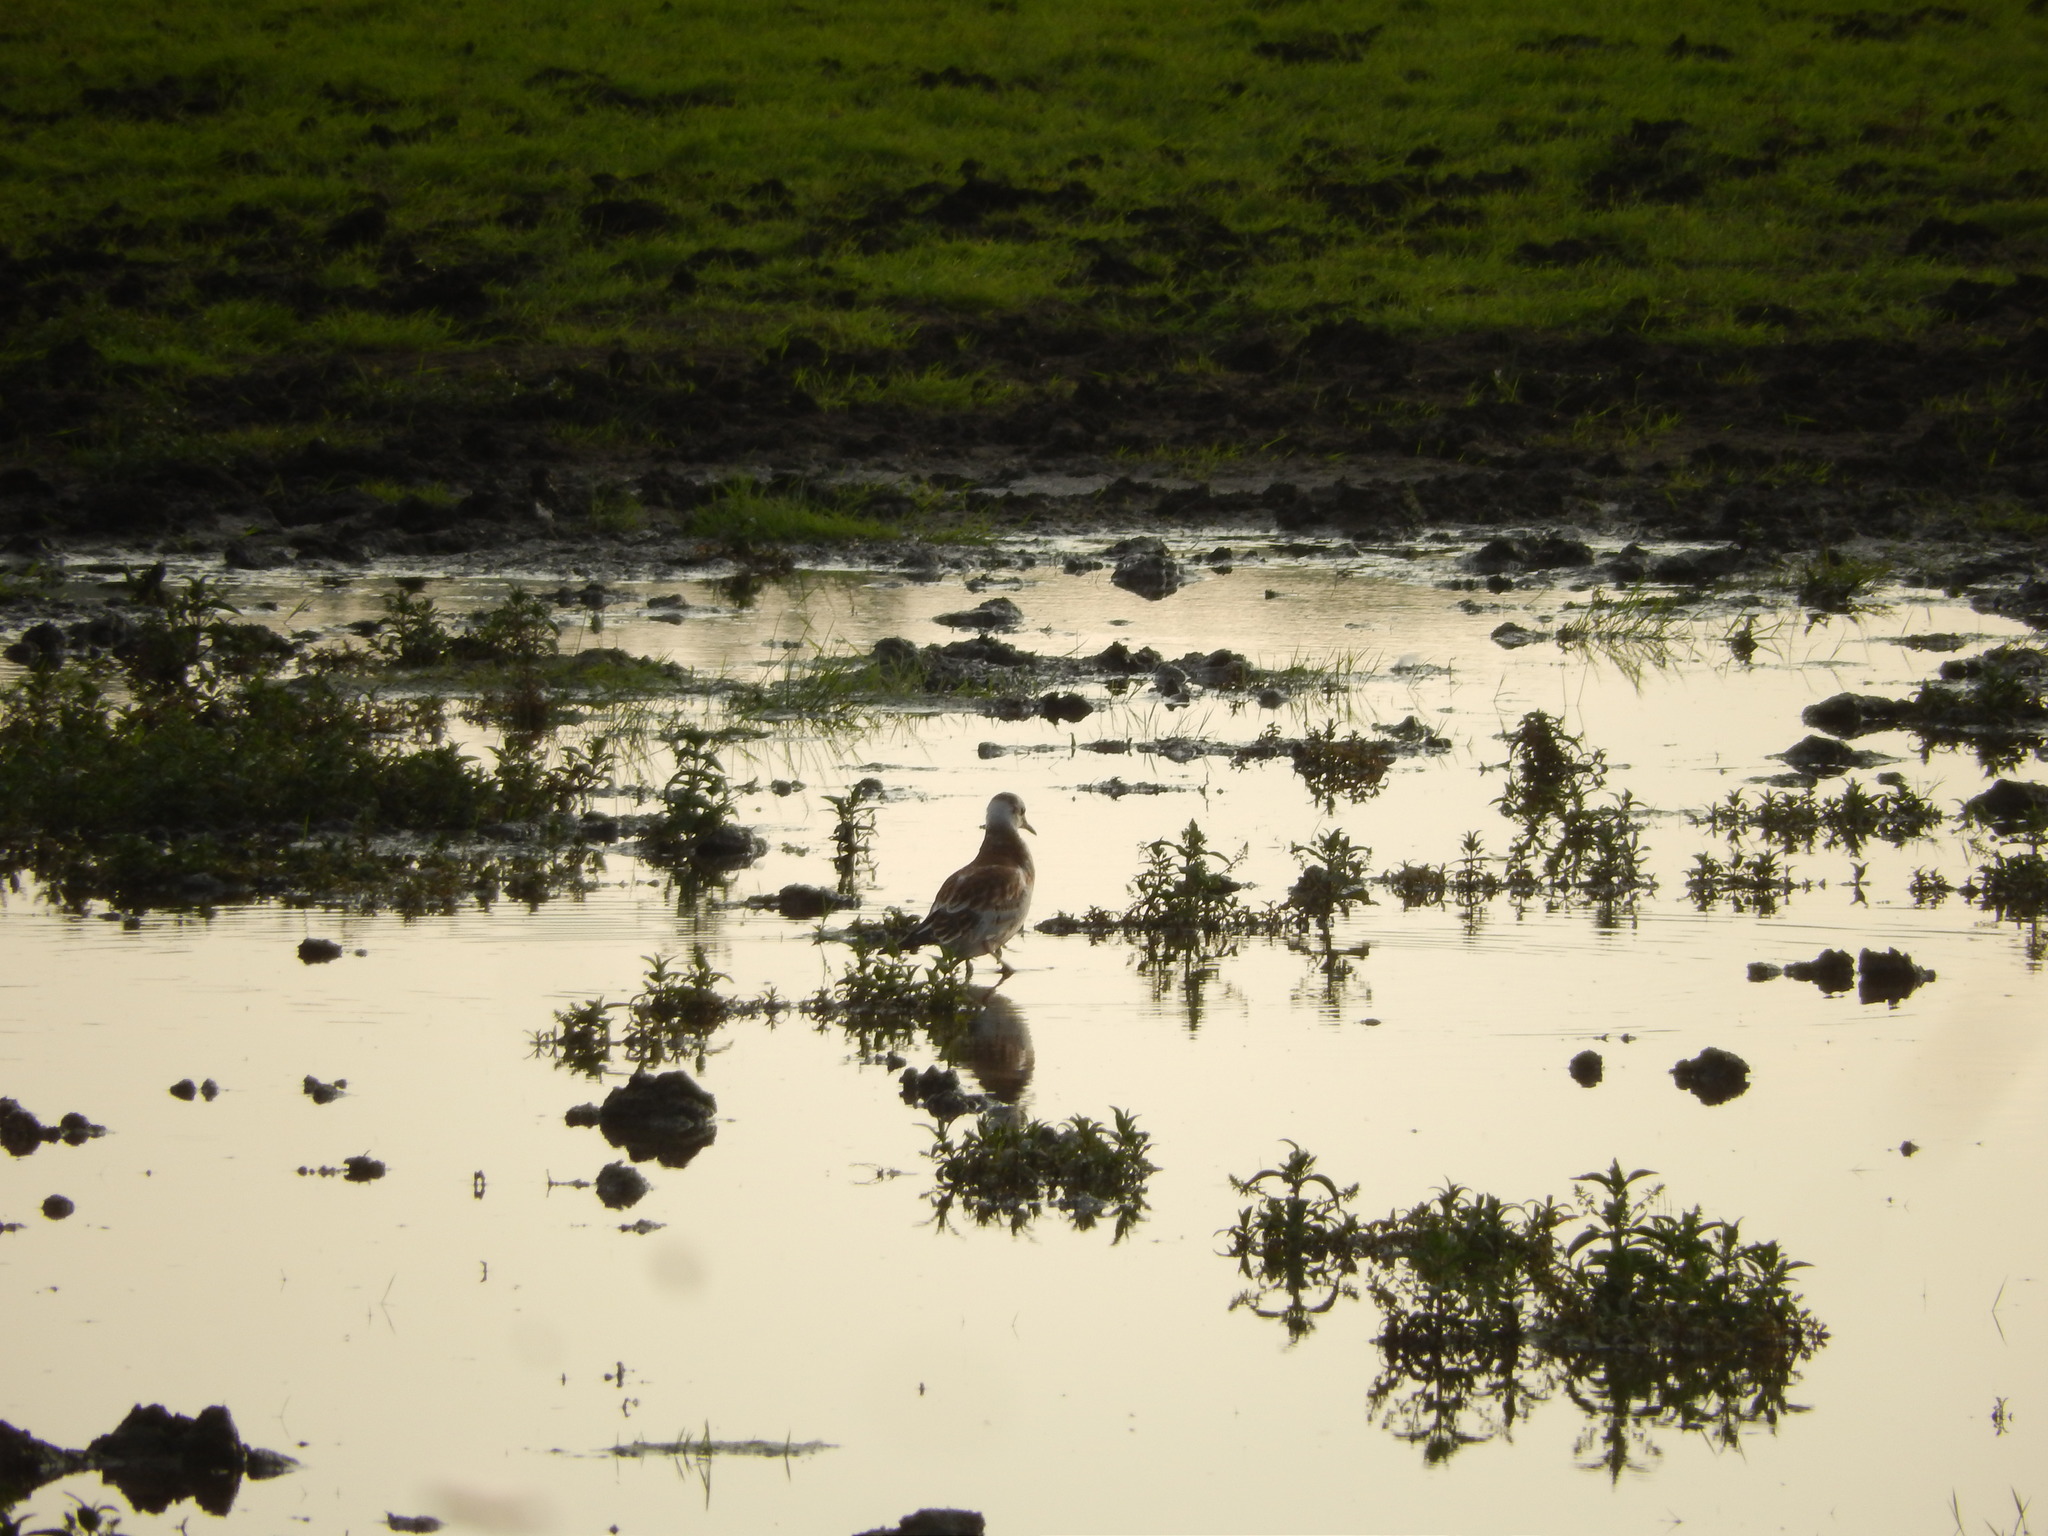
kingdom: Animalia
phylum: Chordata
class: Aves
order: Charadriiformes
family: Laridae
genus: Chroicocephalus
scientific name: Chroicocephalus ridibundus
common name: Black-headed gull
